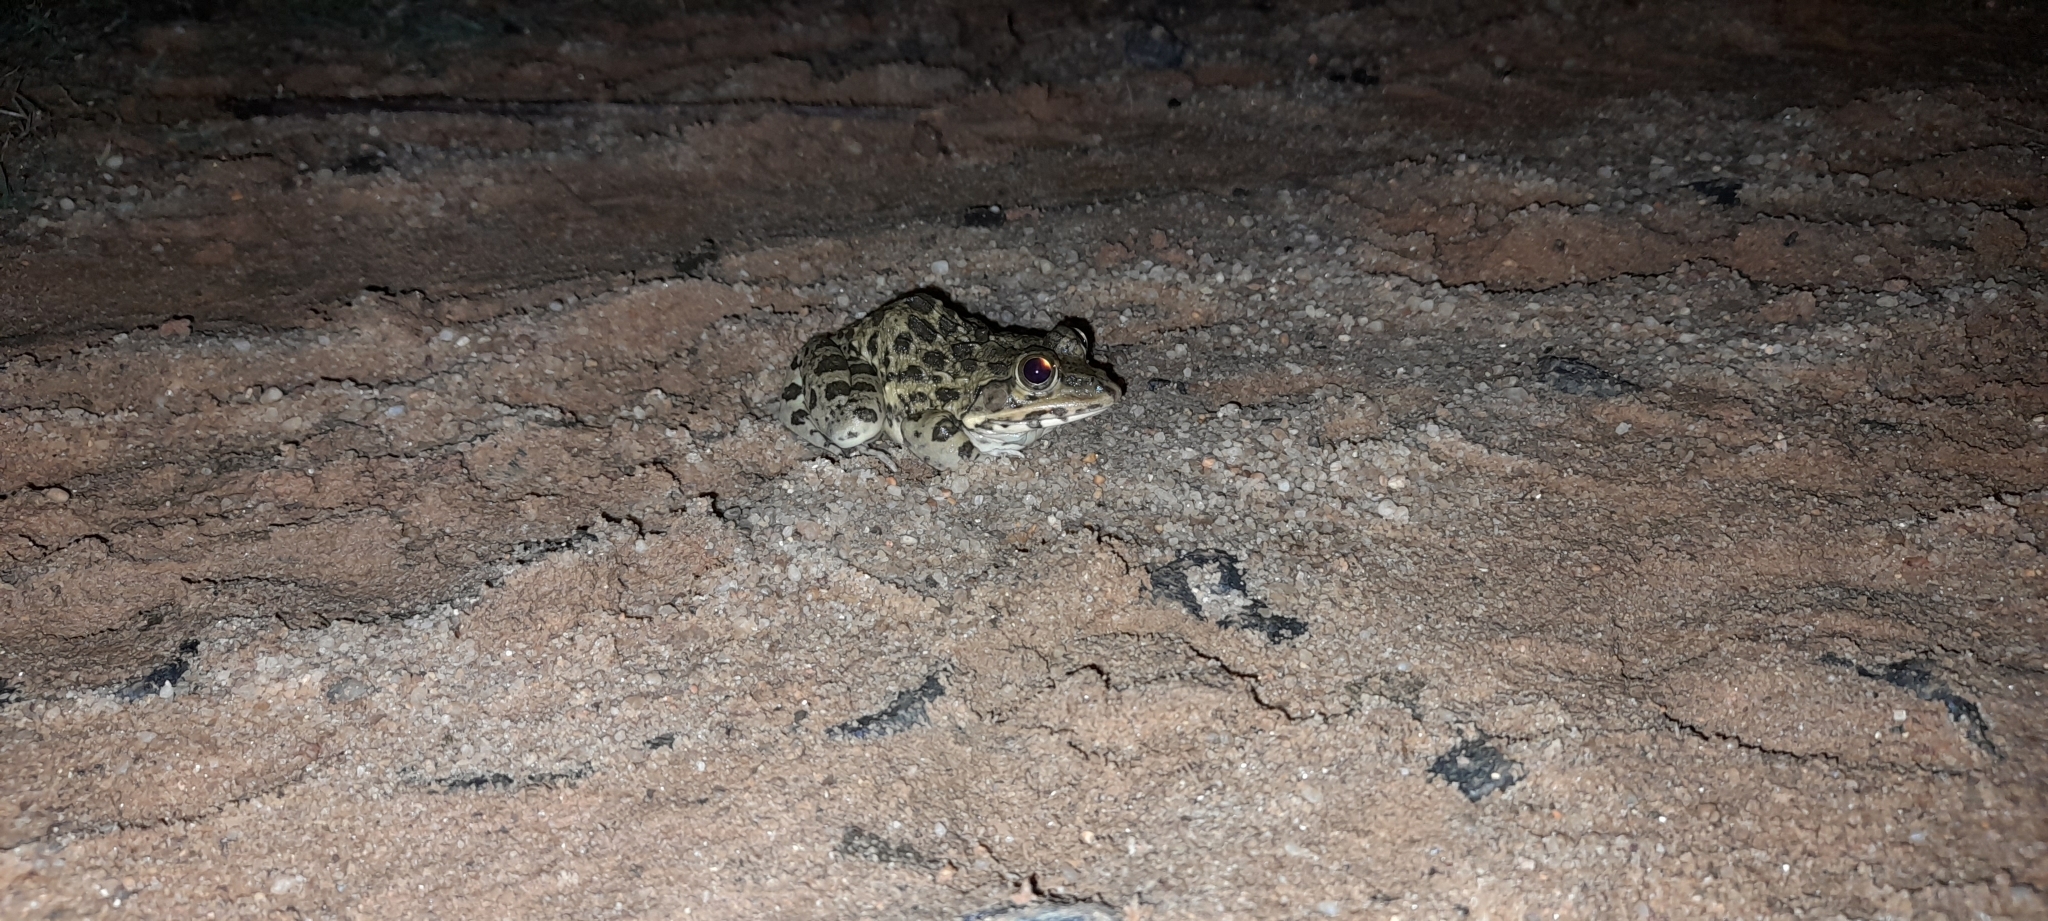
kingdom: Animalia
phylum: Chordata
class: Amphibia
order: Anura
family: Dicroglossidae
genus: Hoplobatrachus
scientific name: Hoplobatrachus crassus
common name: Jerdon's bullfrog
